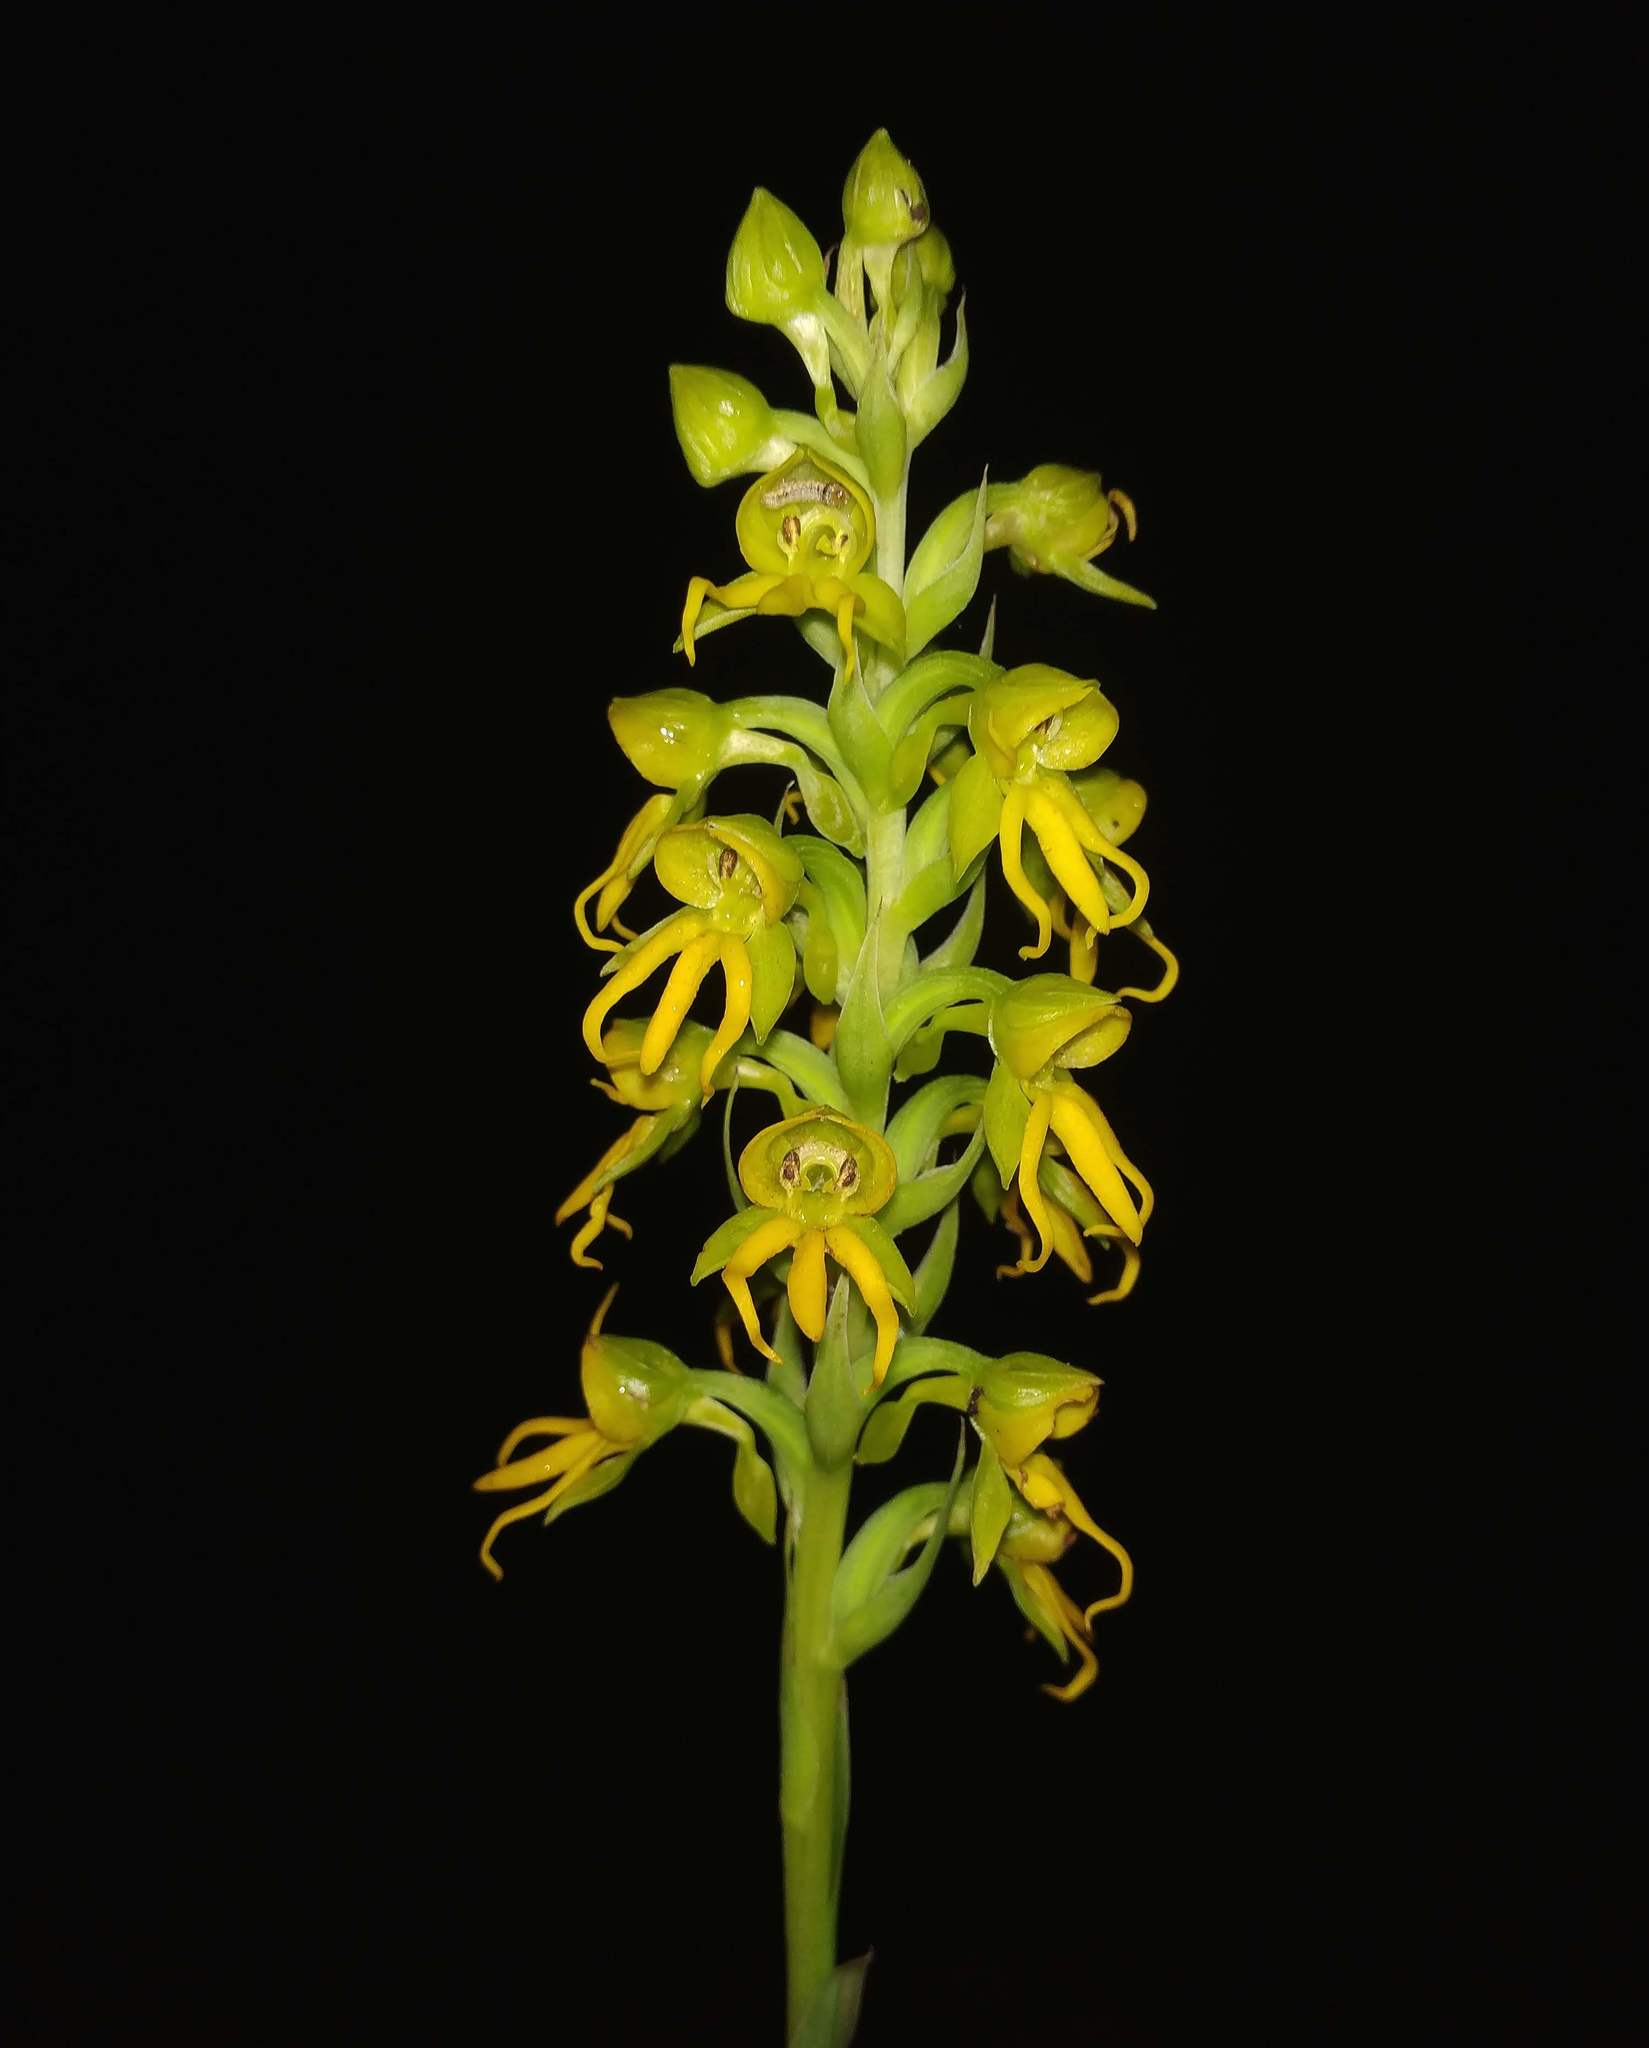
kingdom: Plantae
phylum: Tracheophyta
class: Liliopsida
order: Asparagales
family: Orchidaceae
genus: Habenaria
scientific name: Habenaria marginata
